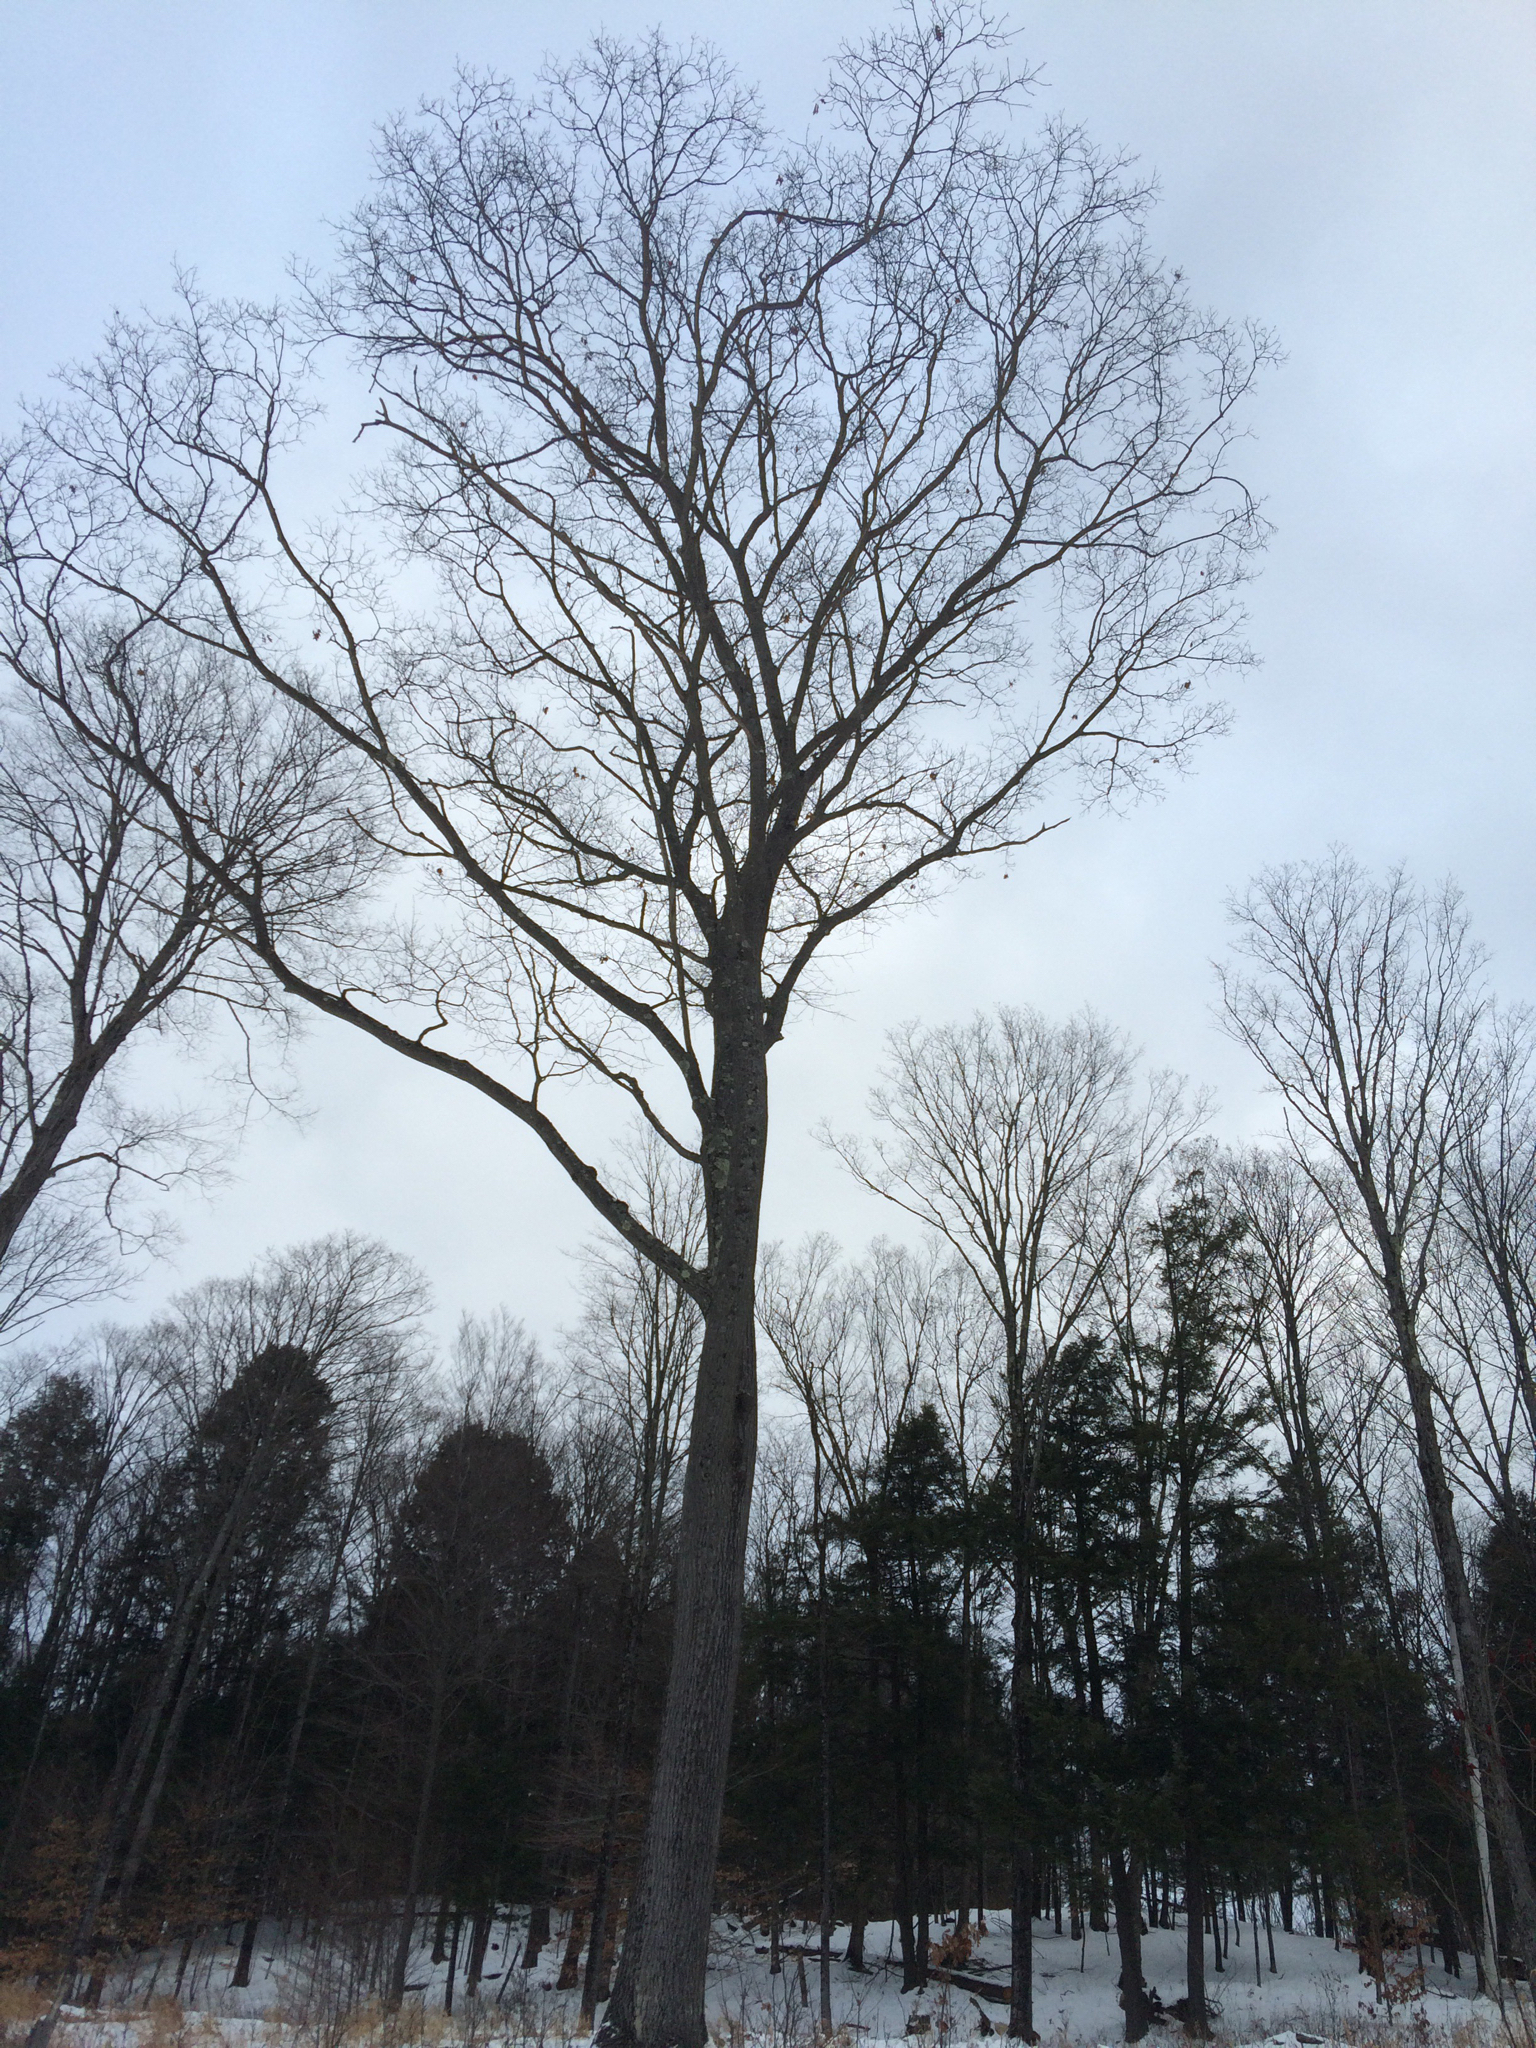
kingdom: Plantae
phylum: Tracheophyta
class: Magnoliopsida
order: Fagales
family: Fagaceae
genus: Quercus
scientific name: Quercus rubra
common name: Red oak
